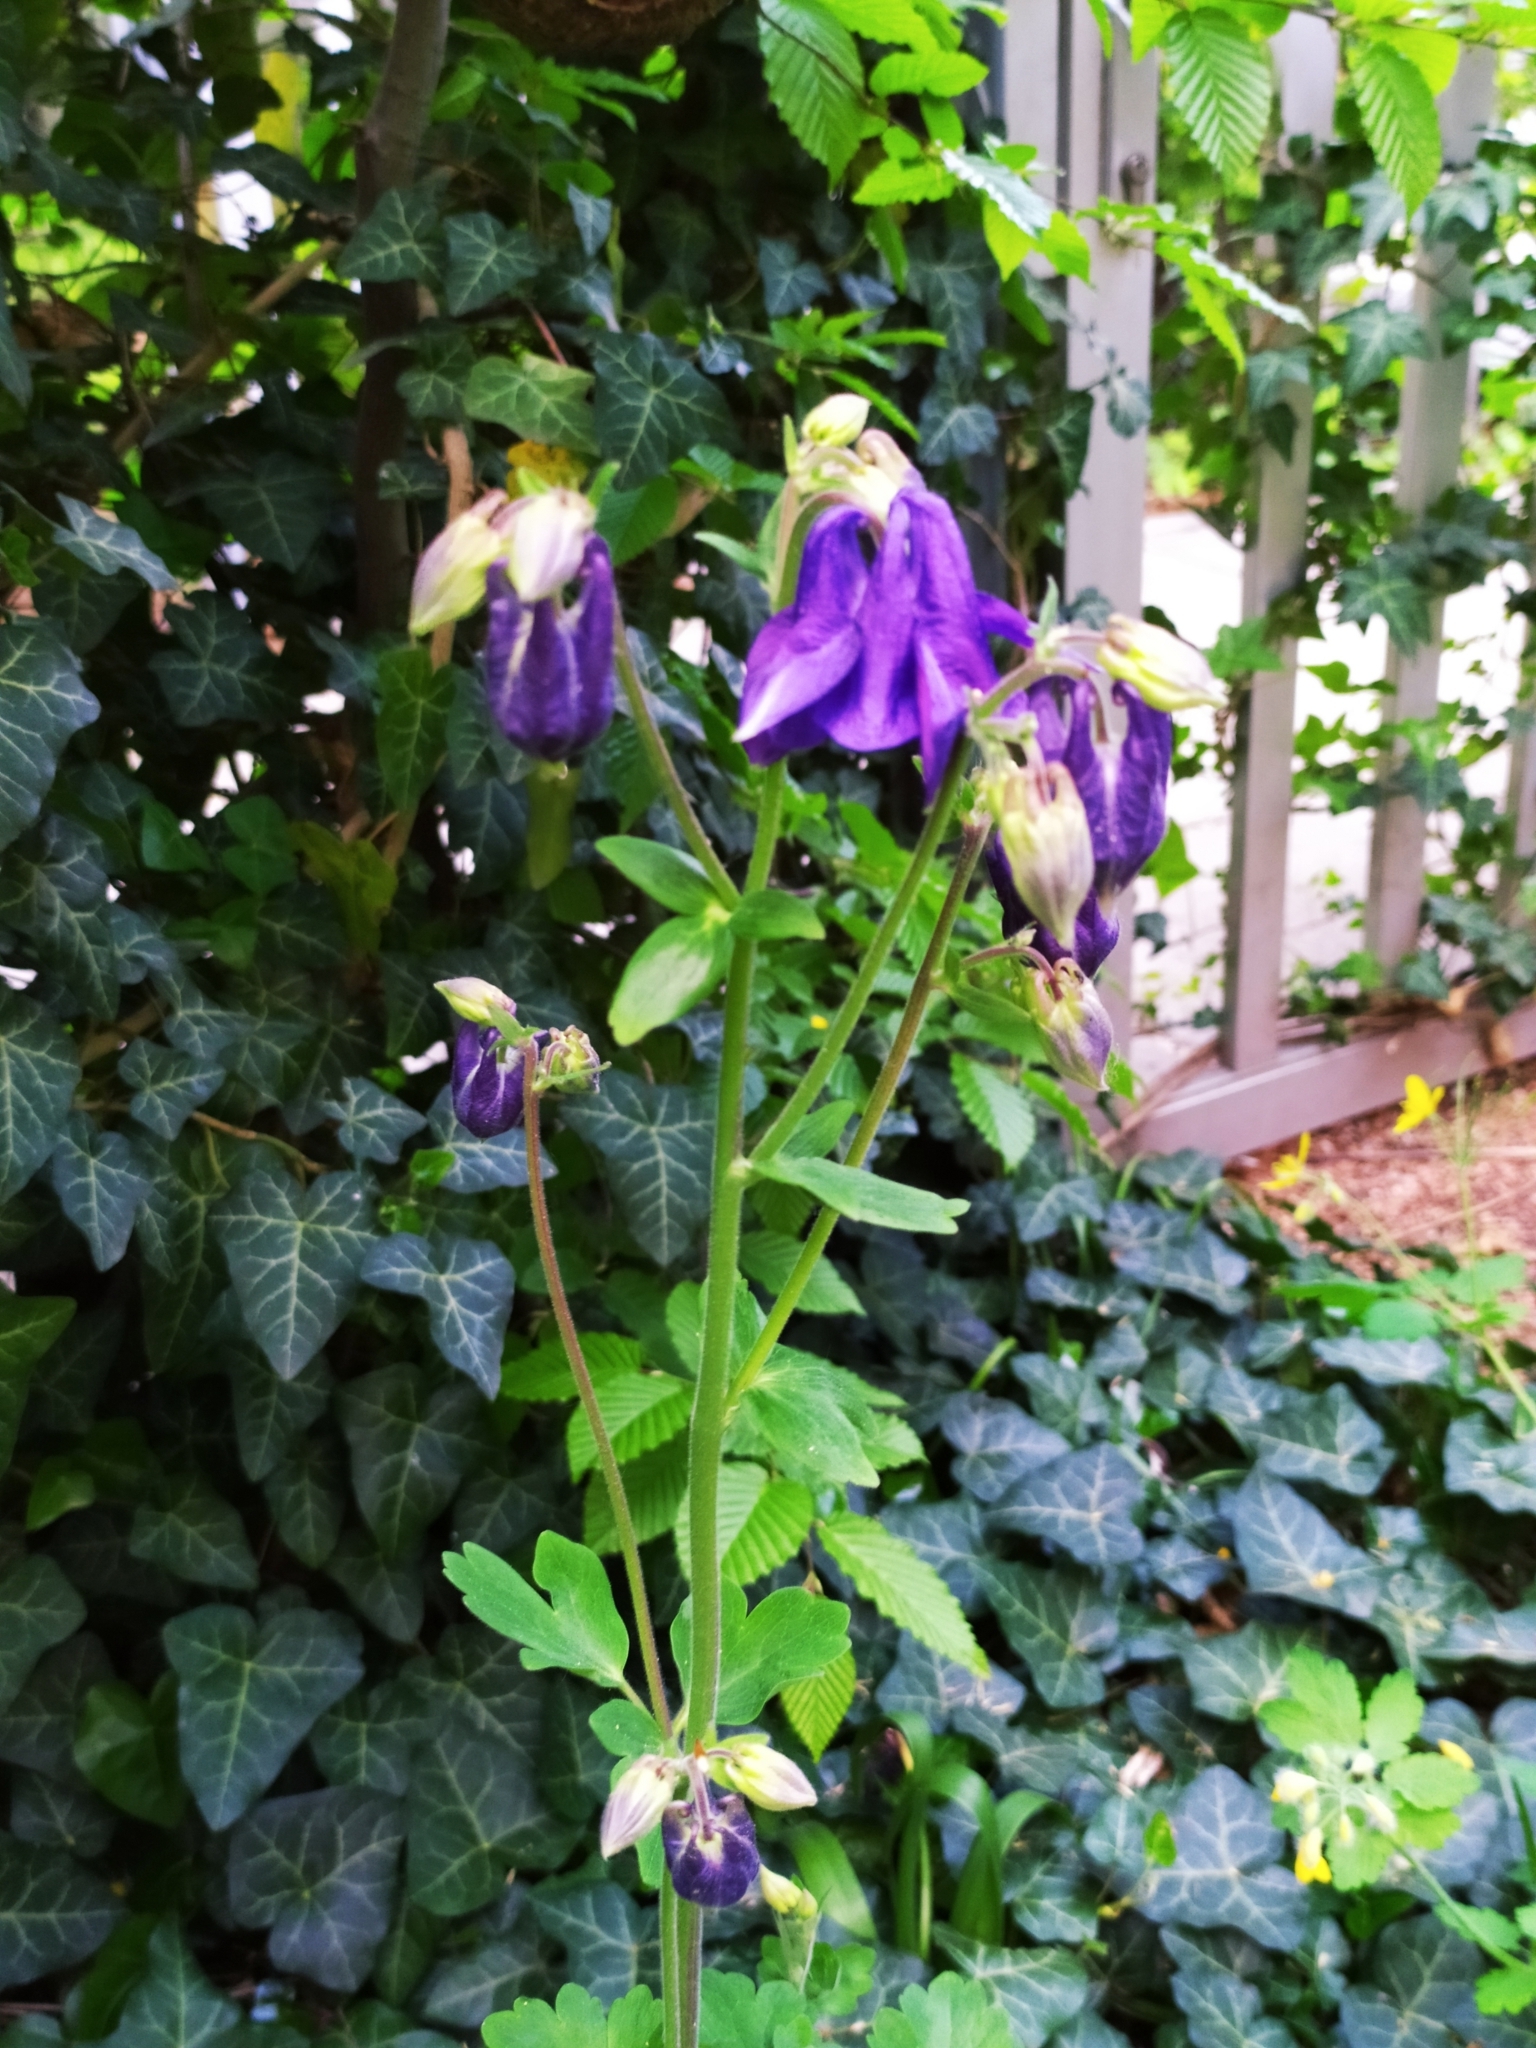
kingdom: Plantae
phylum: Tracheophyta
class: Magnoliopsida
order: Ranunculales
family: Ranunculaceae
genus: Aquilegia
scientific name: Aquilegia vulgaris
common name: Columbine
